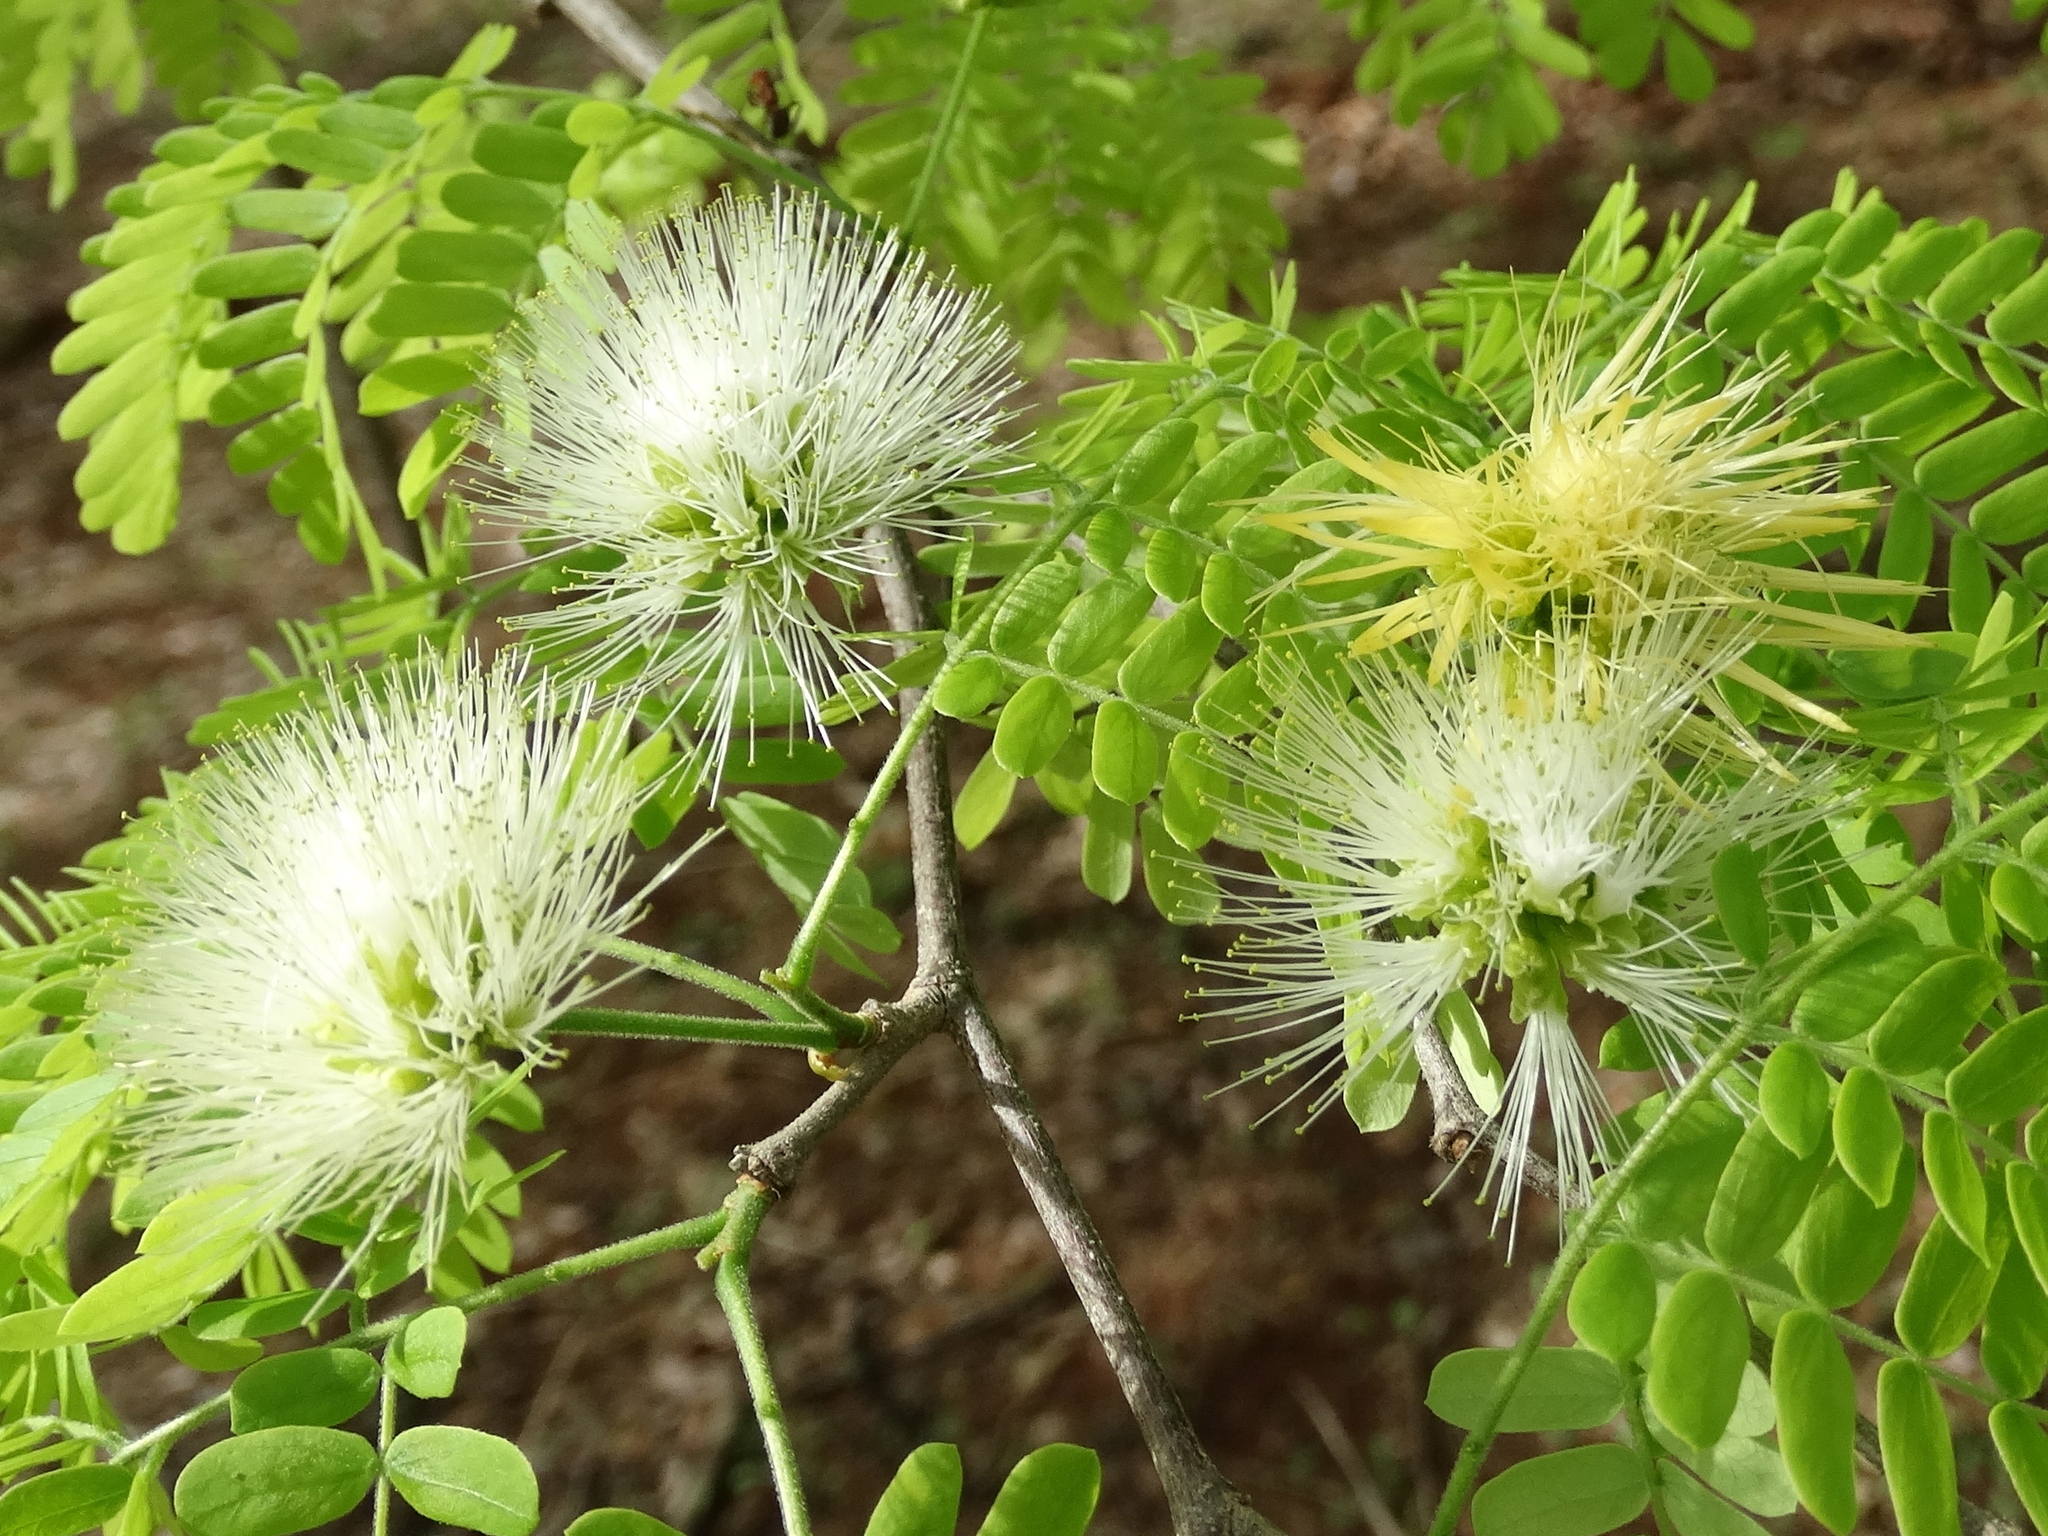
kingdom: Plantae
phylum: Tracheophyta
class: Magnoliopsida
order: Fabales
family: Fabaceae
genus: Chloroleucon
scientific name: Chloroleucon mangense
